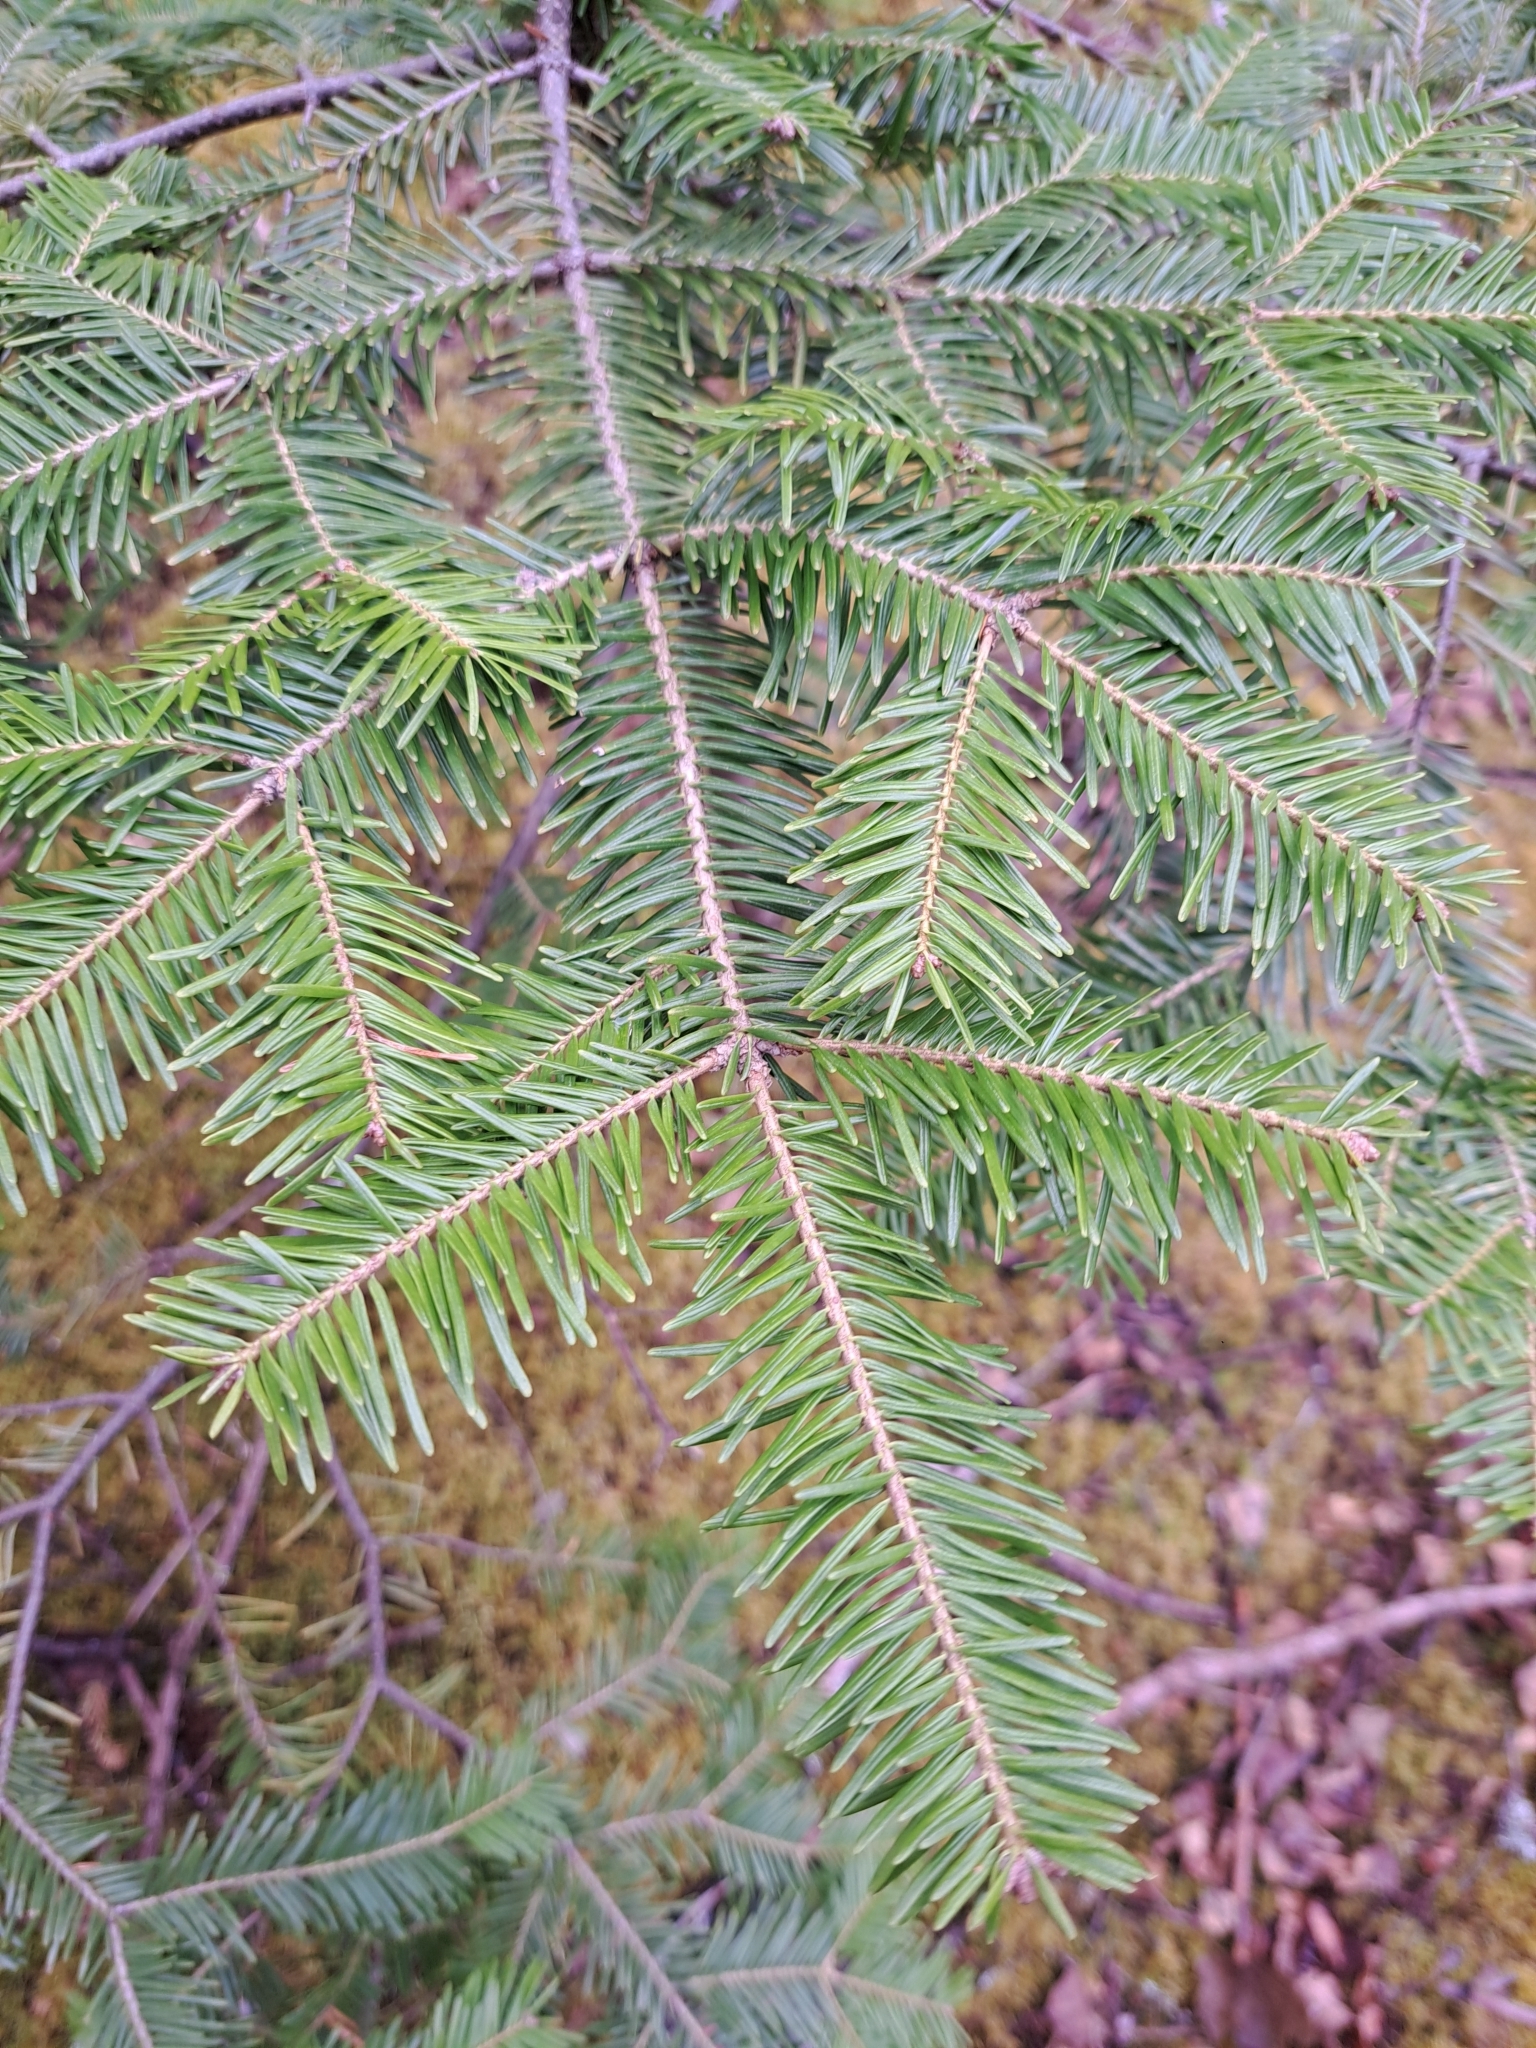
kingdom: Plantae
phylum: Tracheophyta
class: Pinopsida
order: Pinales
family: Pinaceae
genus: Abies
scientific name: Abies balsamea
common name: Balsam fir
